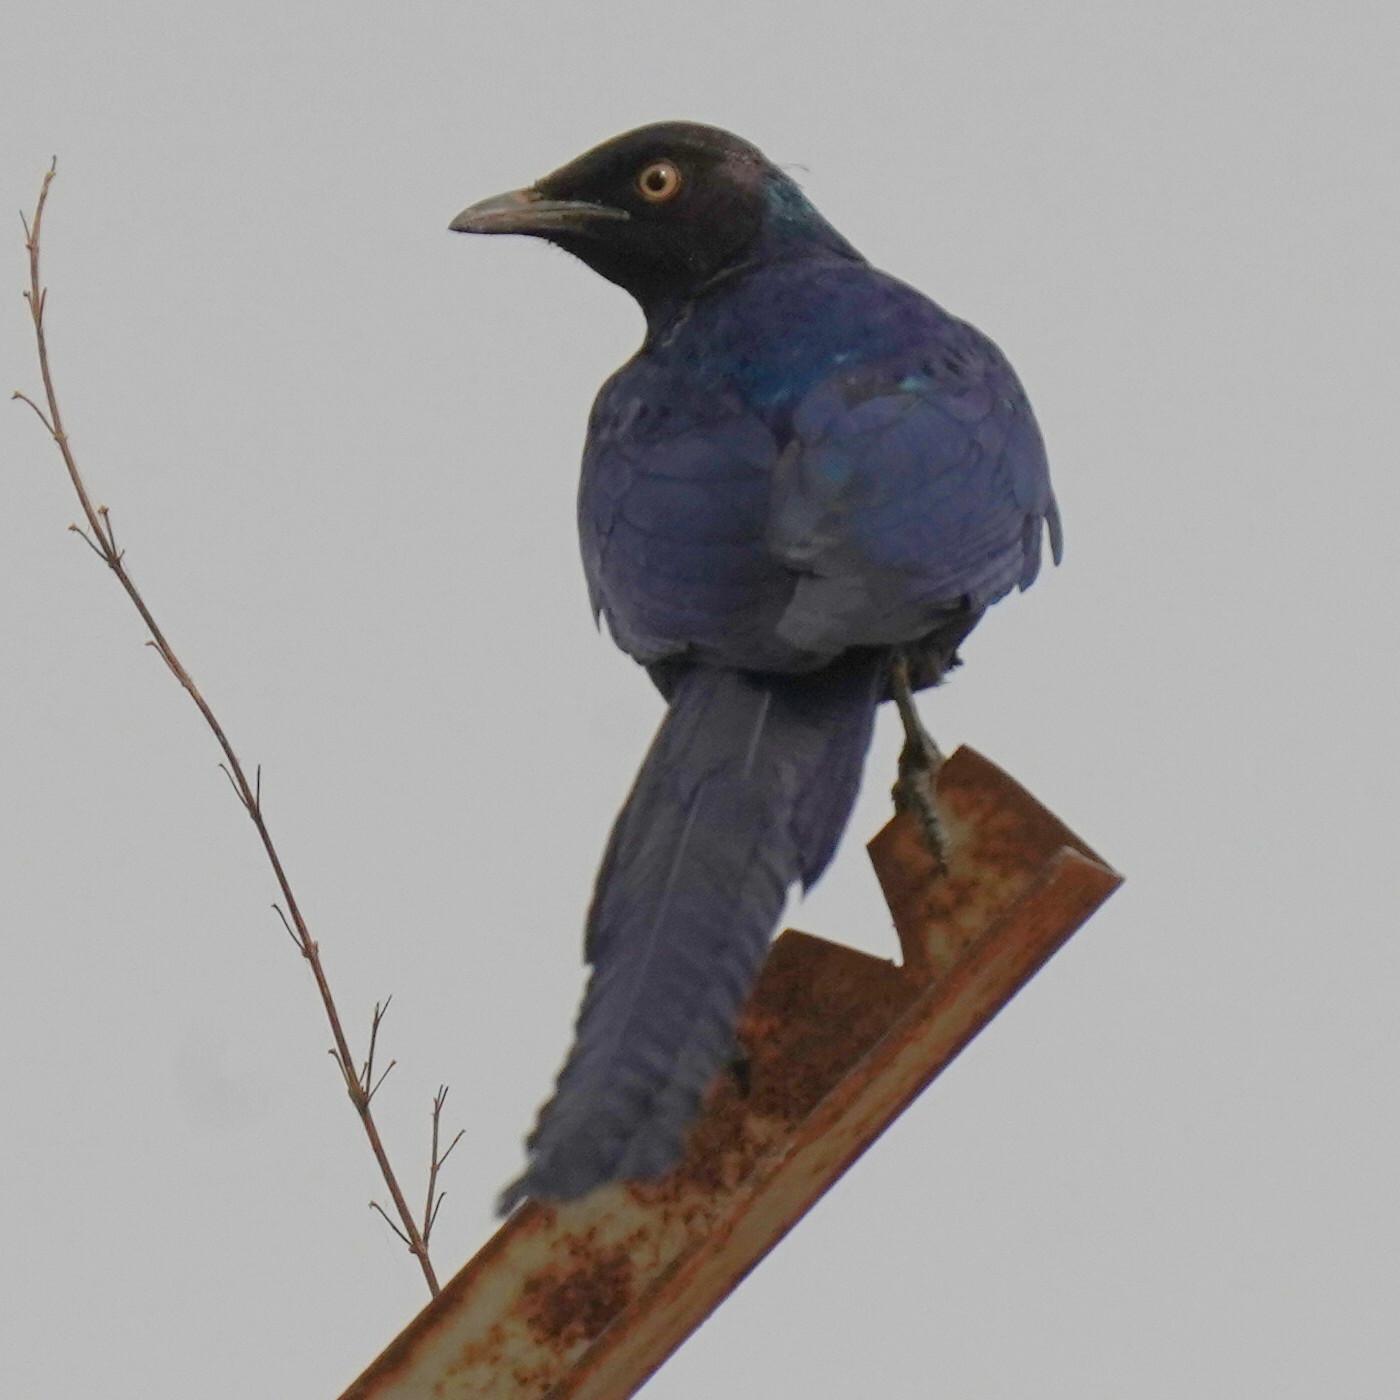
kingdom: Animalia
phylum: Chordata
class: Aves
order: Passeriformes
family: Sturnidae
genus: Lamprotornis
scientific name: Lamprotornis caudatus
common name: Long-tailed glossy starling
